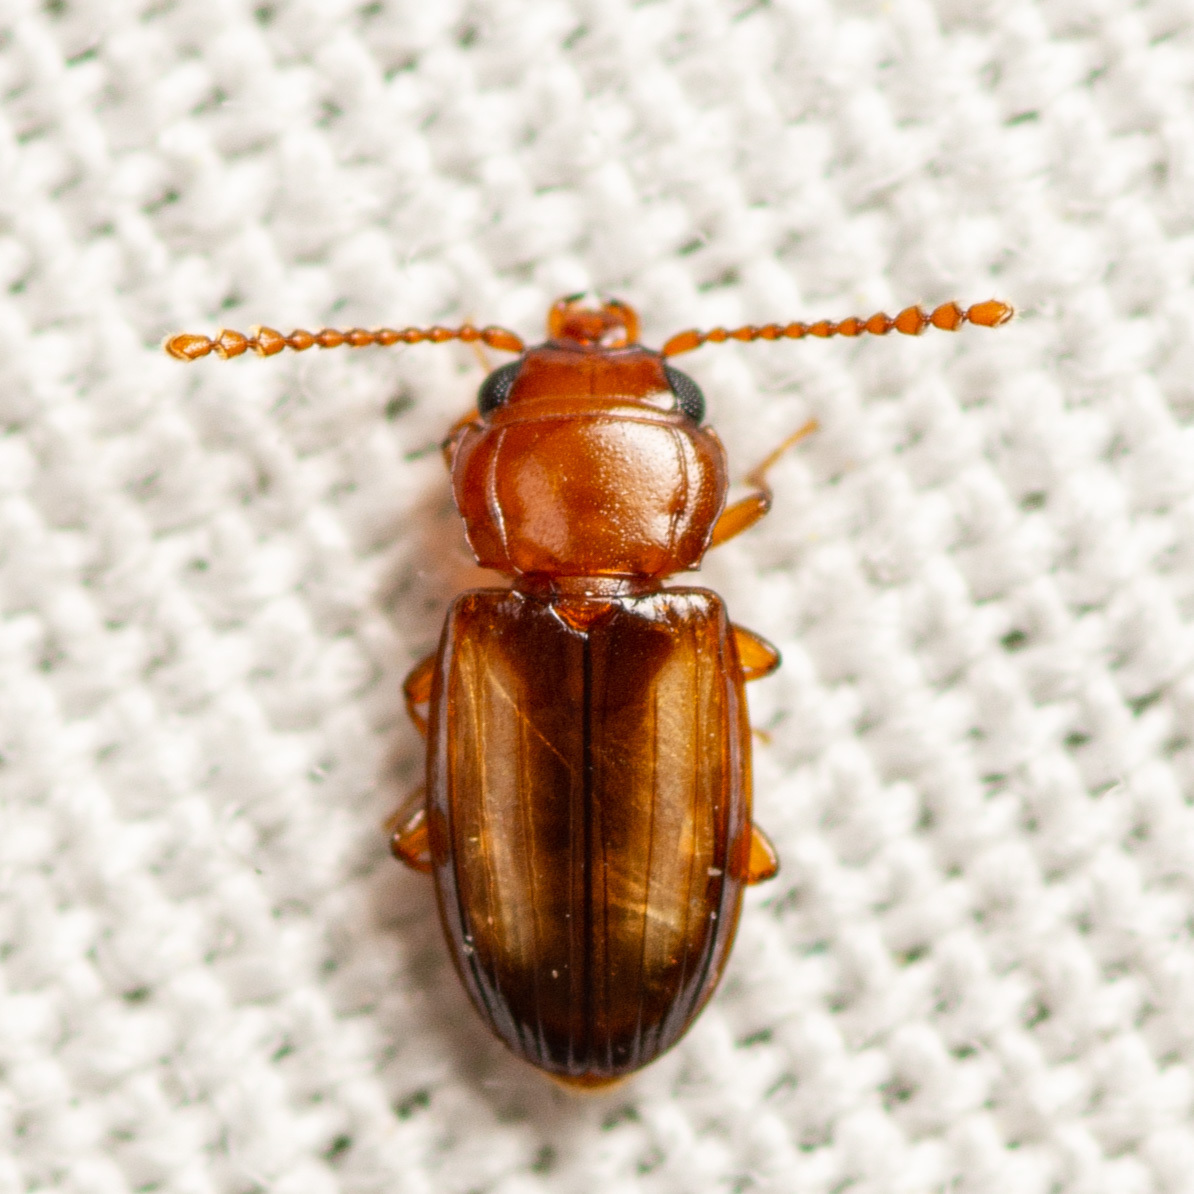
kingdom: Animalia
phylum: Arthropoda
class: Insecta
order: Coleoptera
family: Laemophloeidae
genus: Laemophloeus
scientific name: Laemophloeus terminalis
